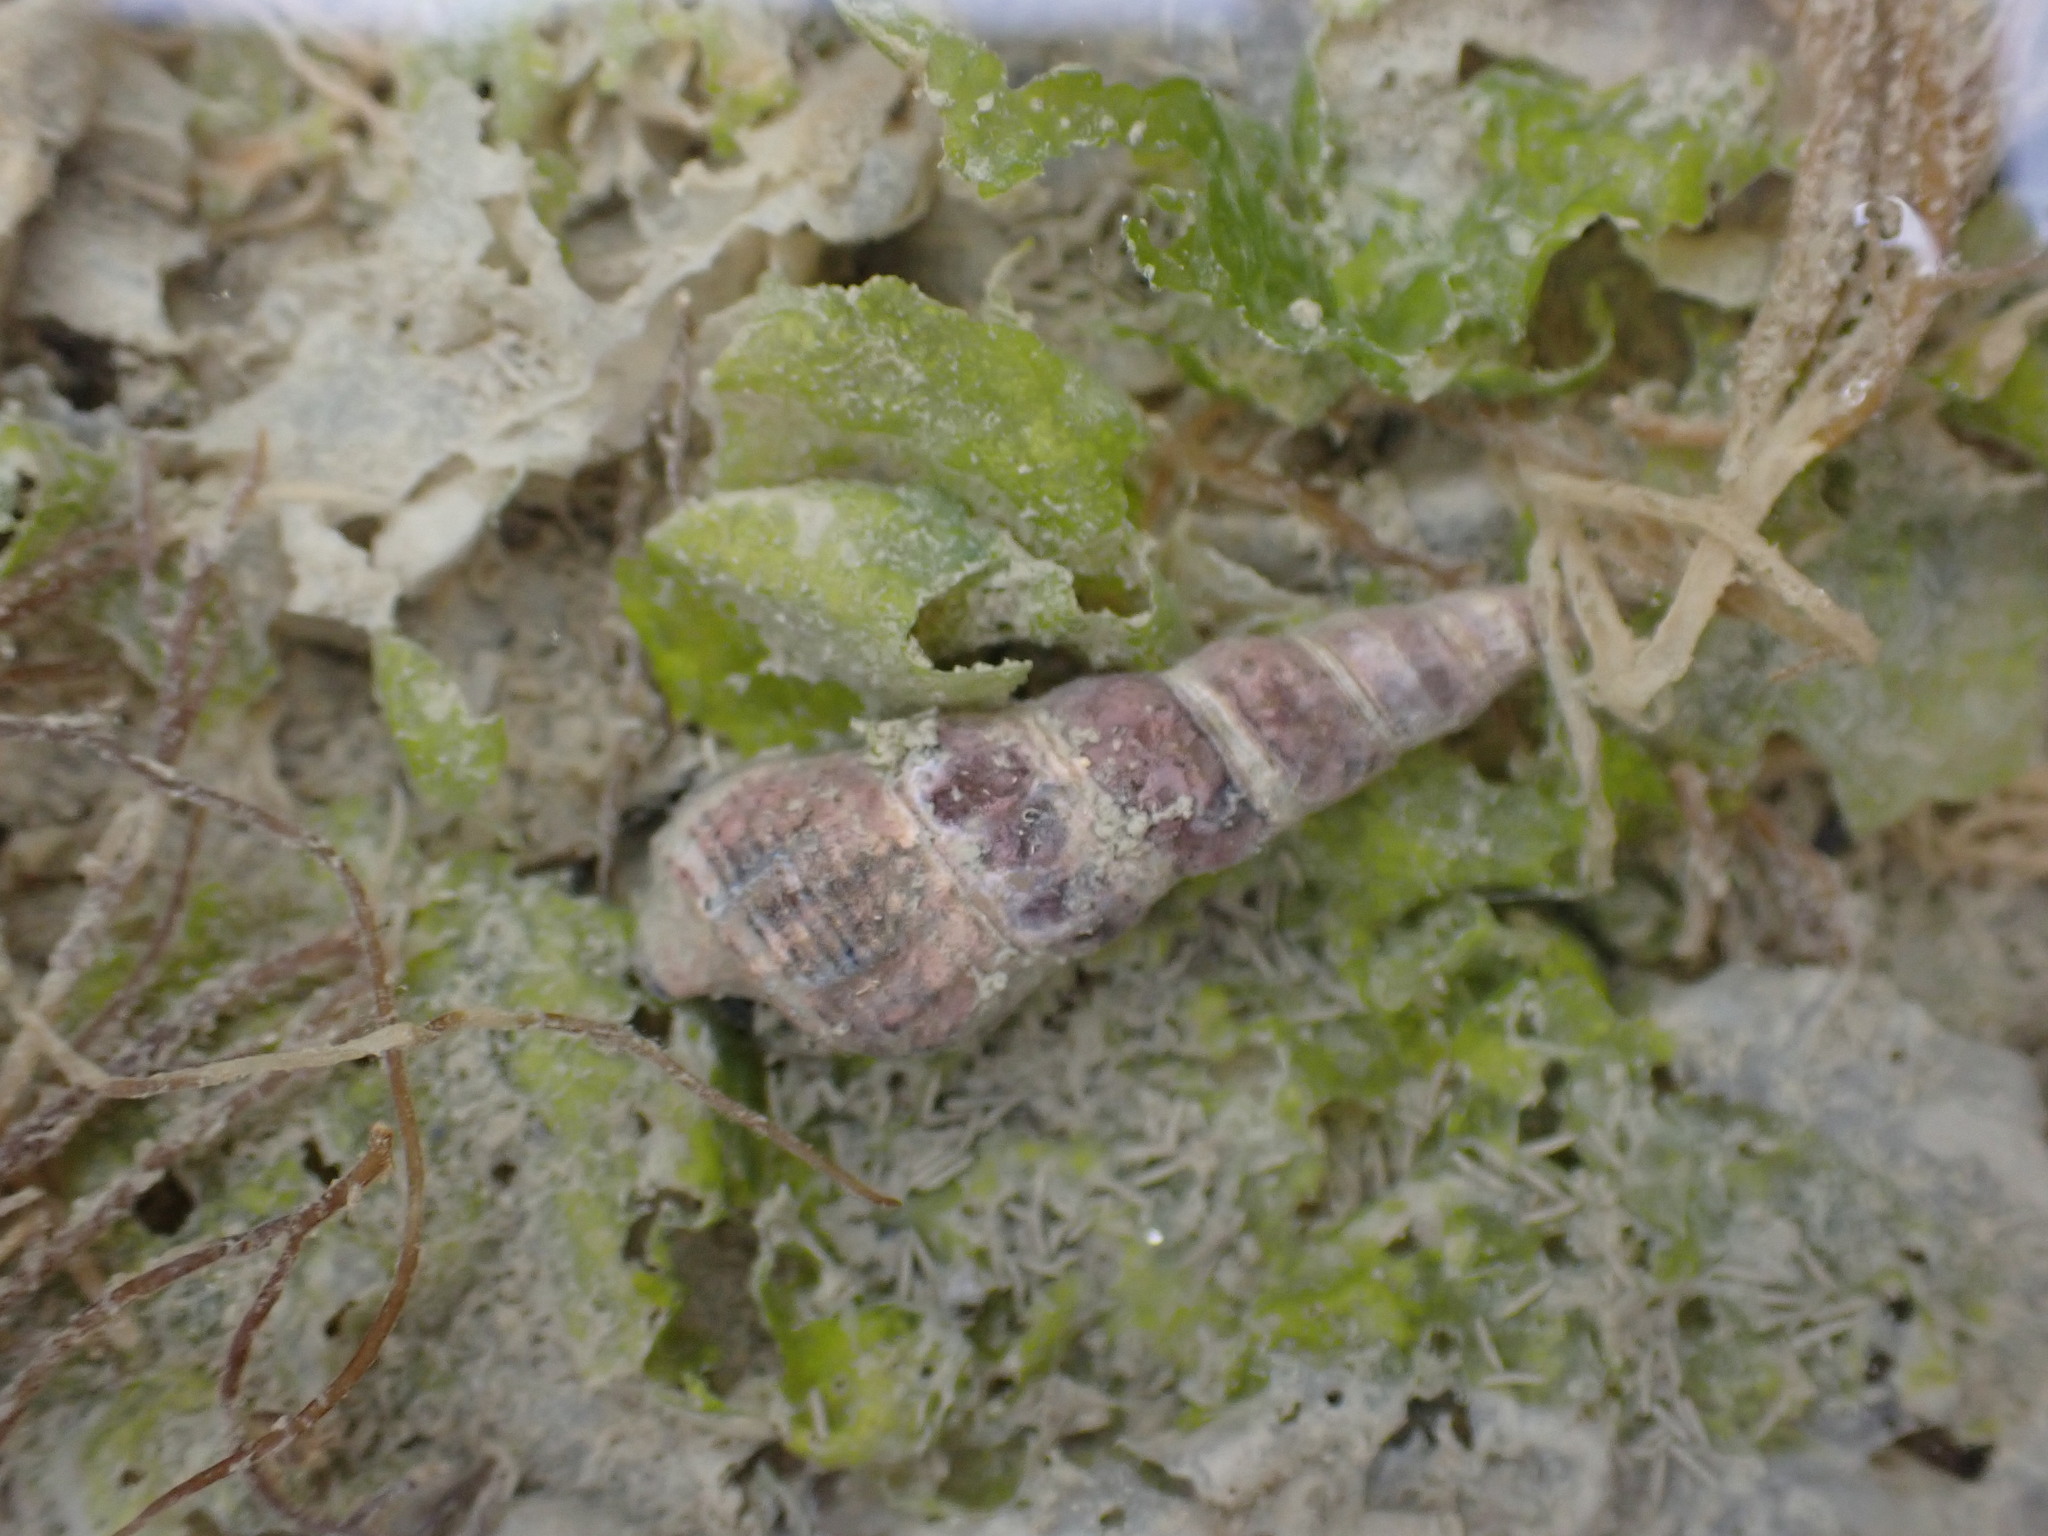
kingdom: Animalia
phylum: Mollusca
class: Gastropoda
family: Batillariidae
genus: Zeacumantus
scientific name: Zeacumantus lutulentus
